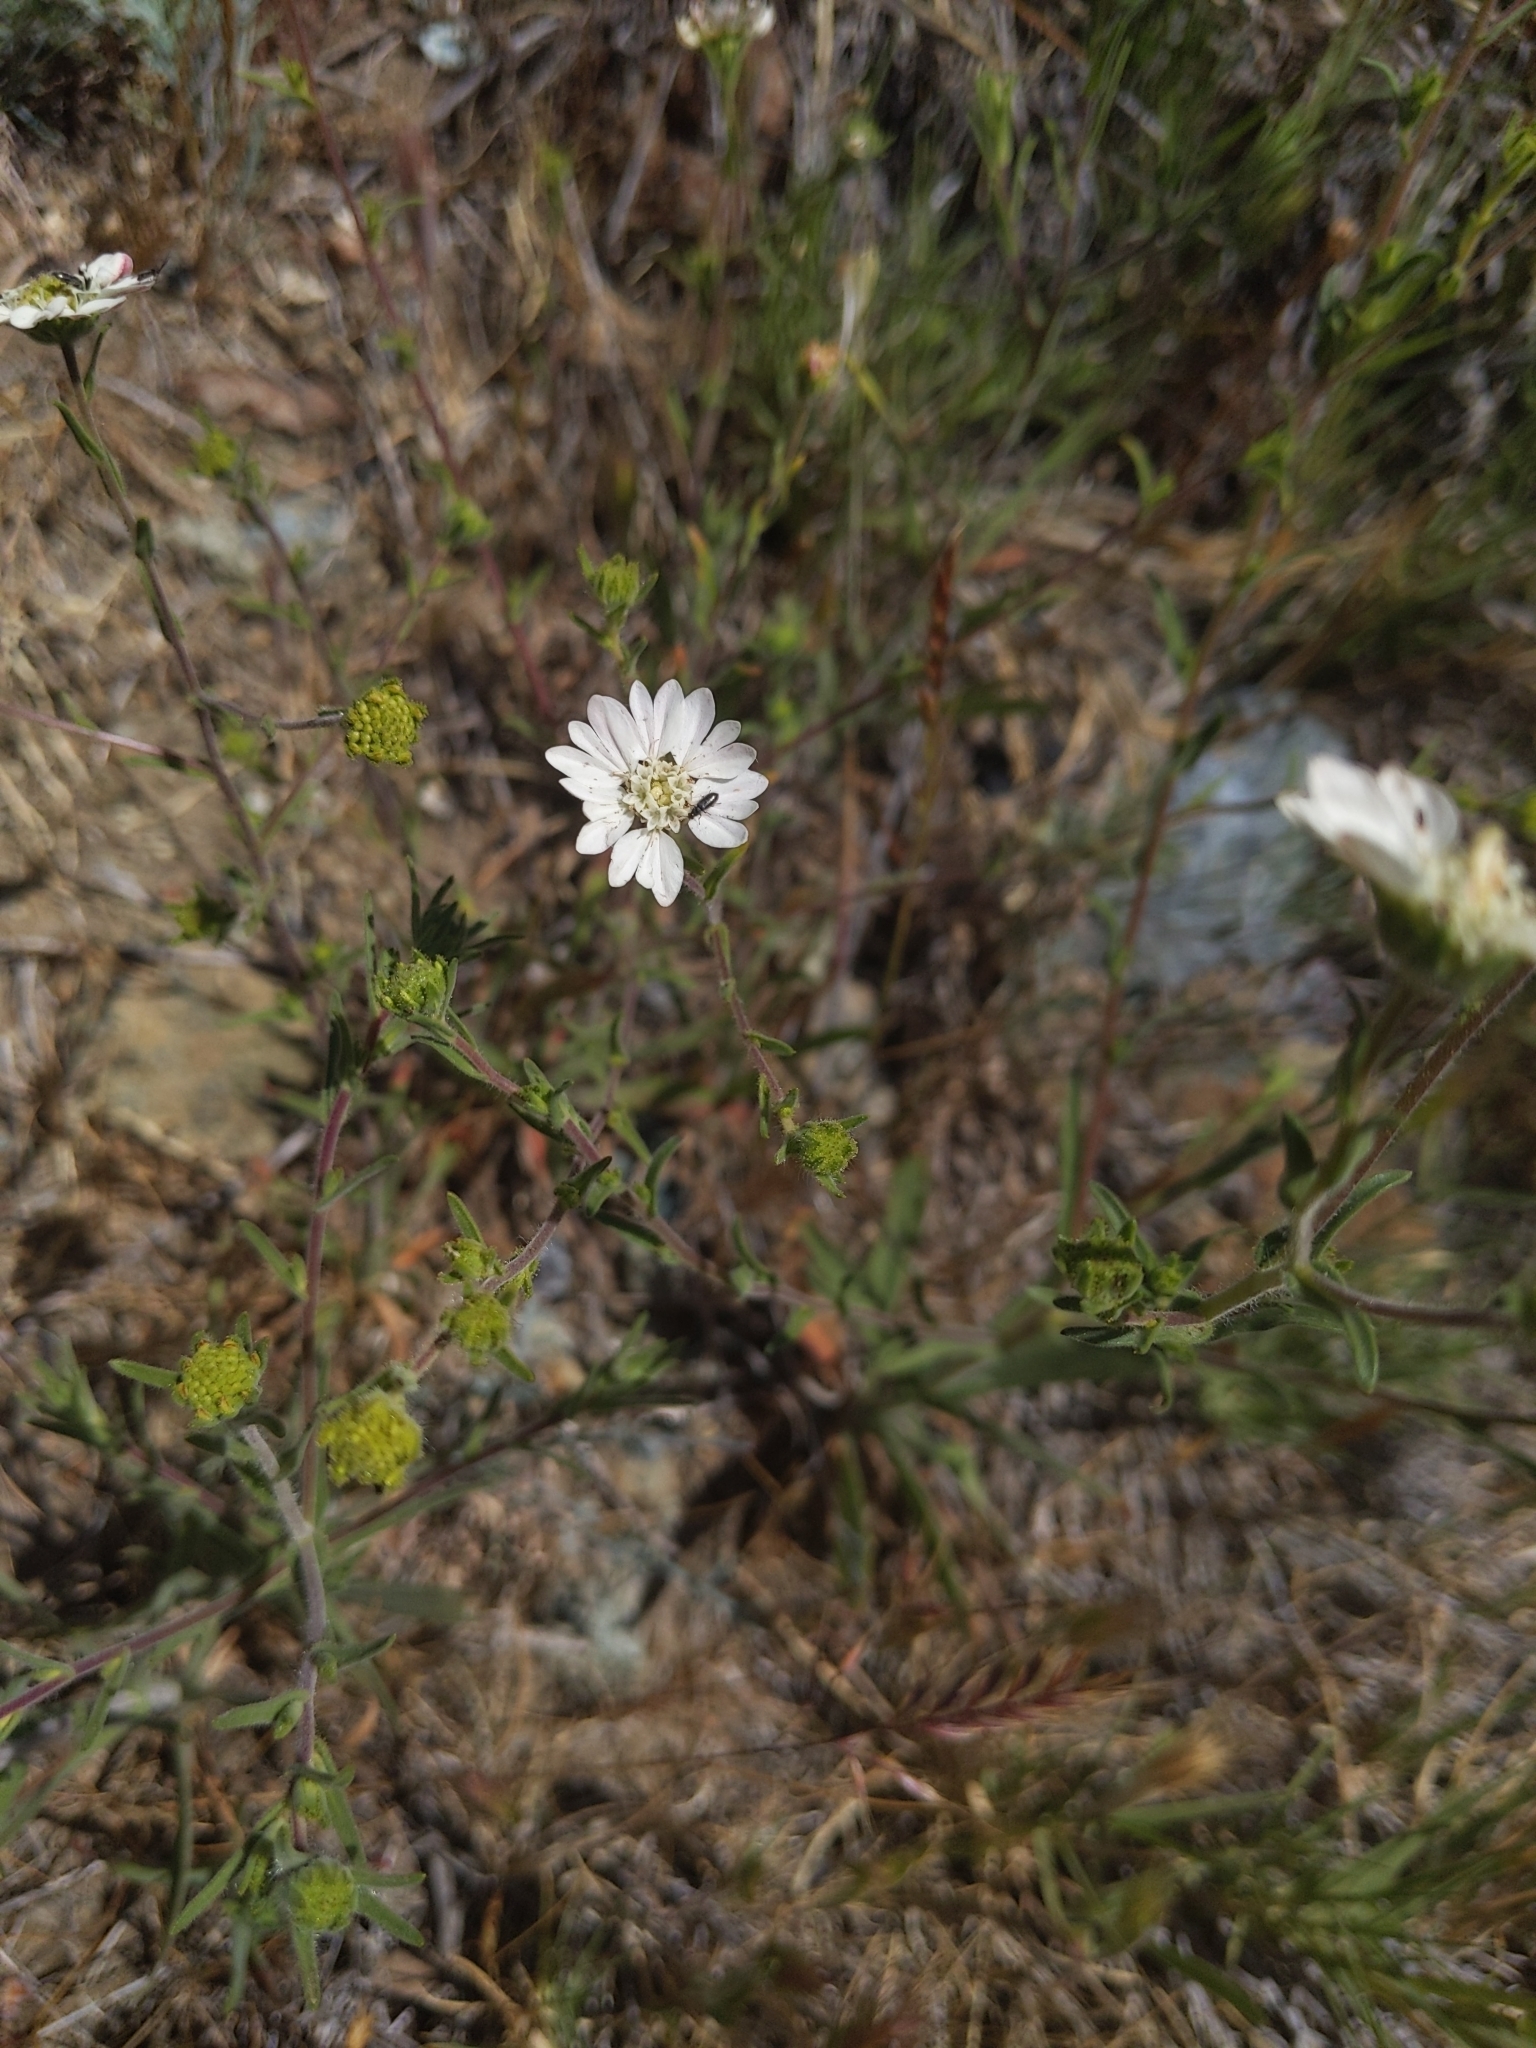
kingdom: Plantae
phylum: Tracheophyta
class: Magnoliopsida
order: Asterales
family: Asteraceae
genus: Hemizonia
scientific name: Hemizonia congesta
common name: Hayfield tarweed
